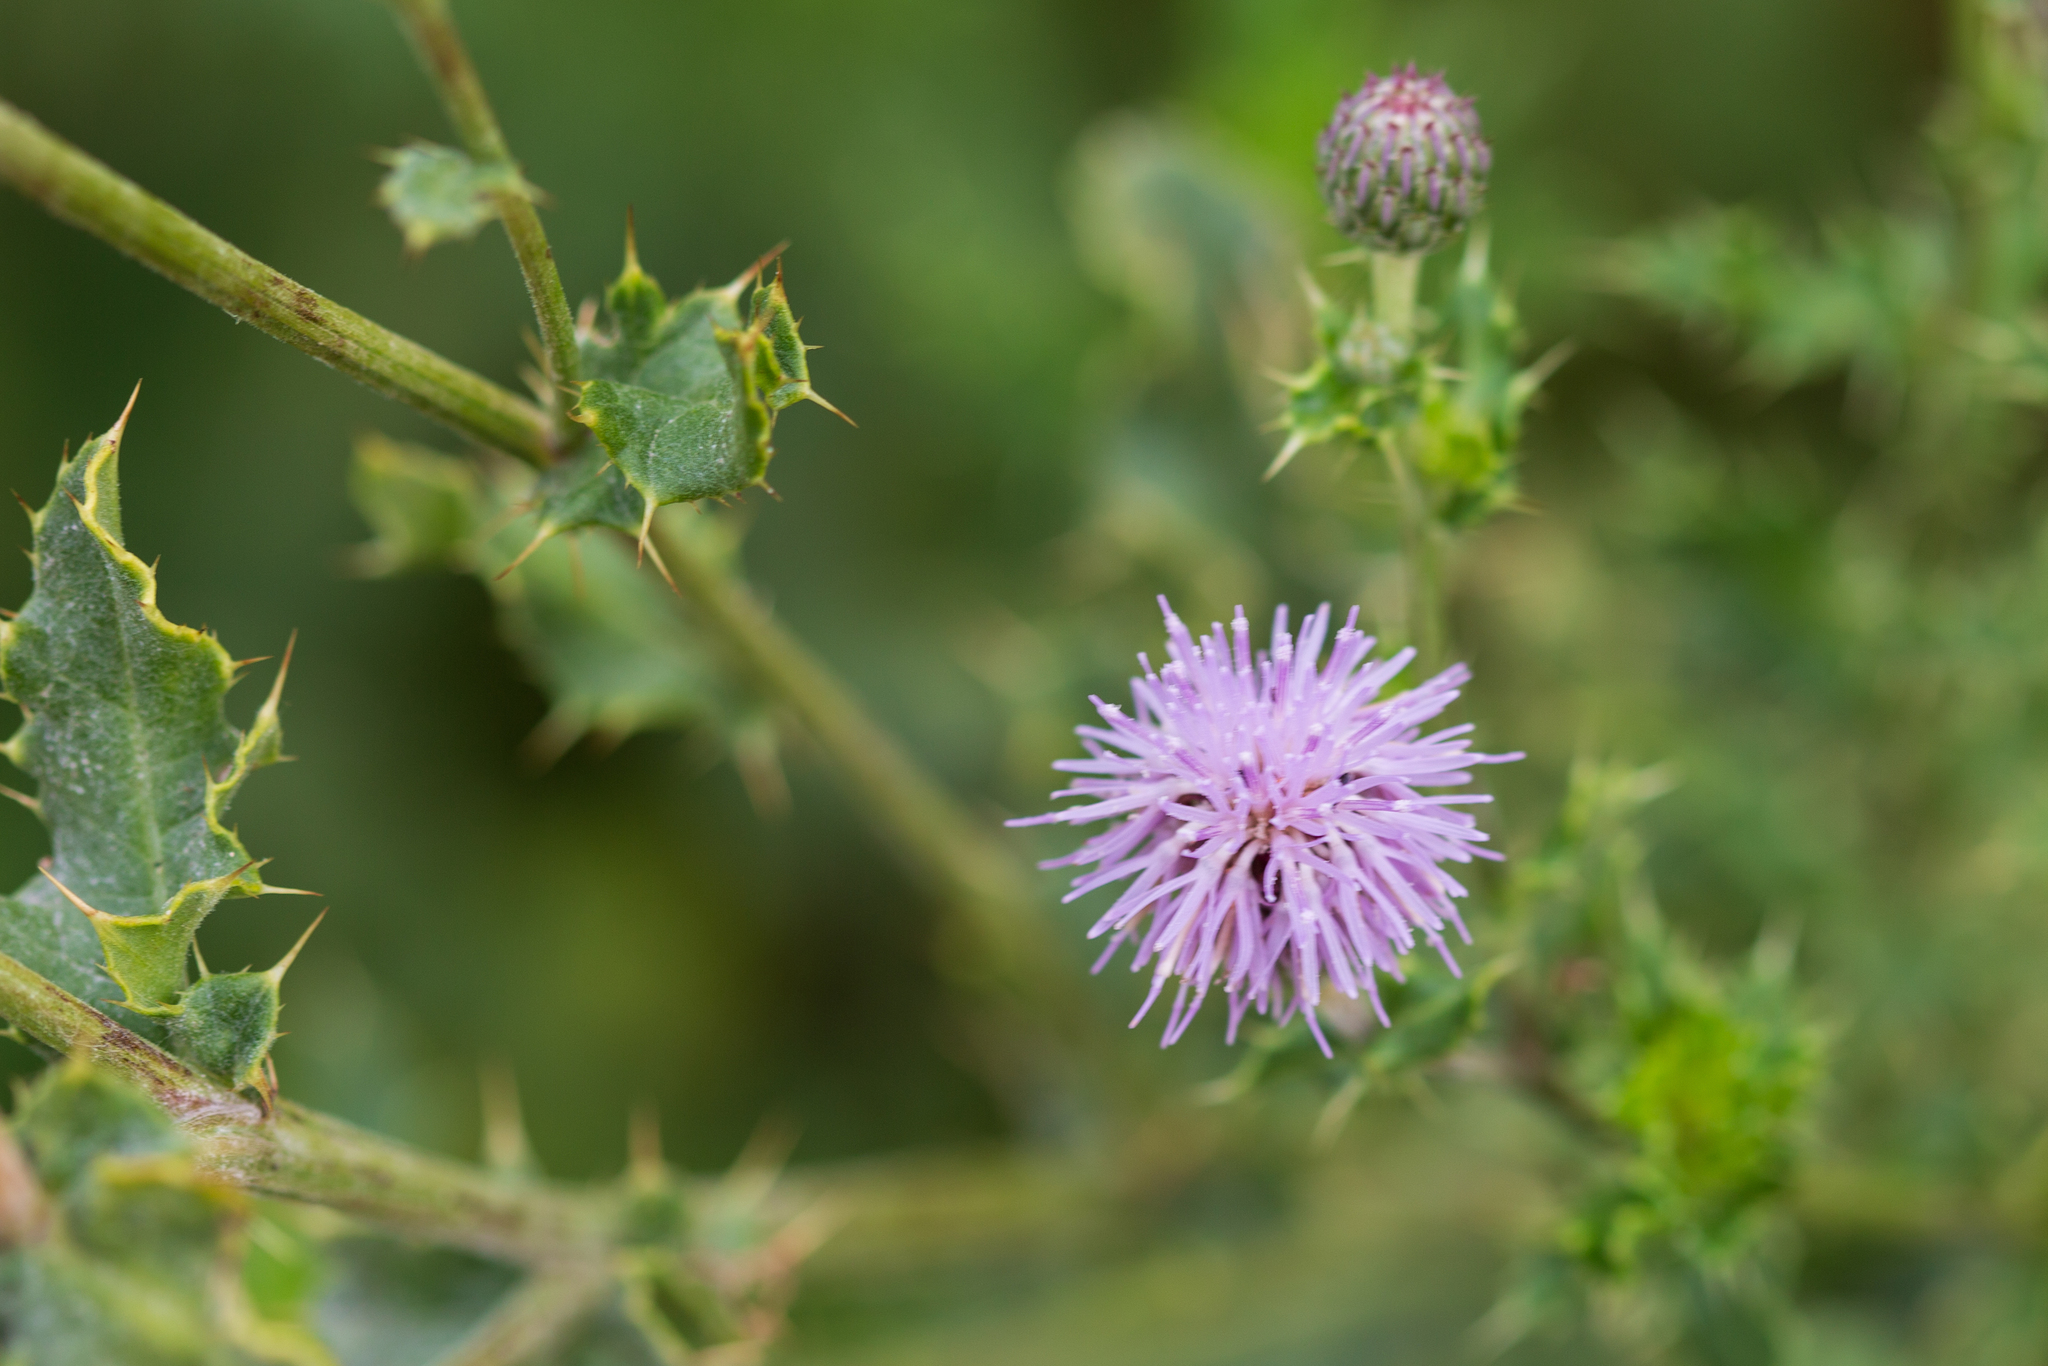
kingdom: Plantae
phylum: Tracheophyta
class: Magnoliopsida
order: Asterales
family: Asteraceae
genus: Cirsium
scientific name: Cirsium arvense
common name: Creeping thistle
